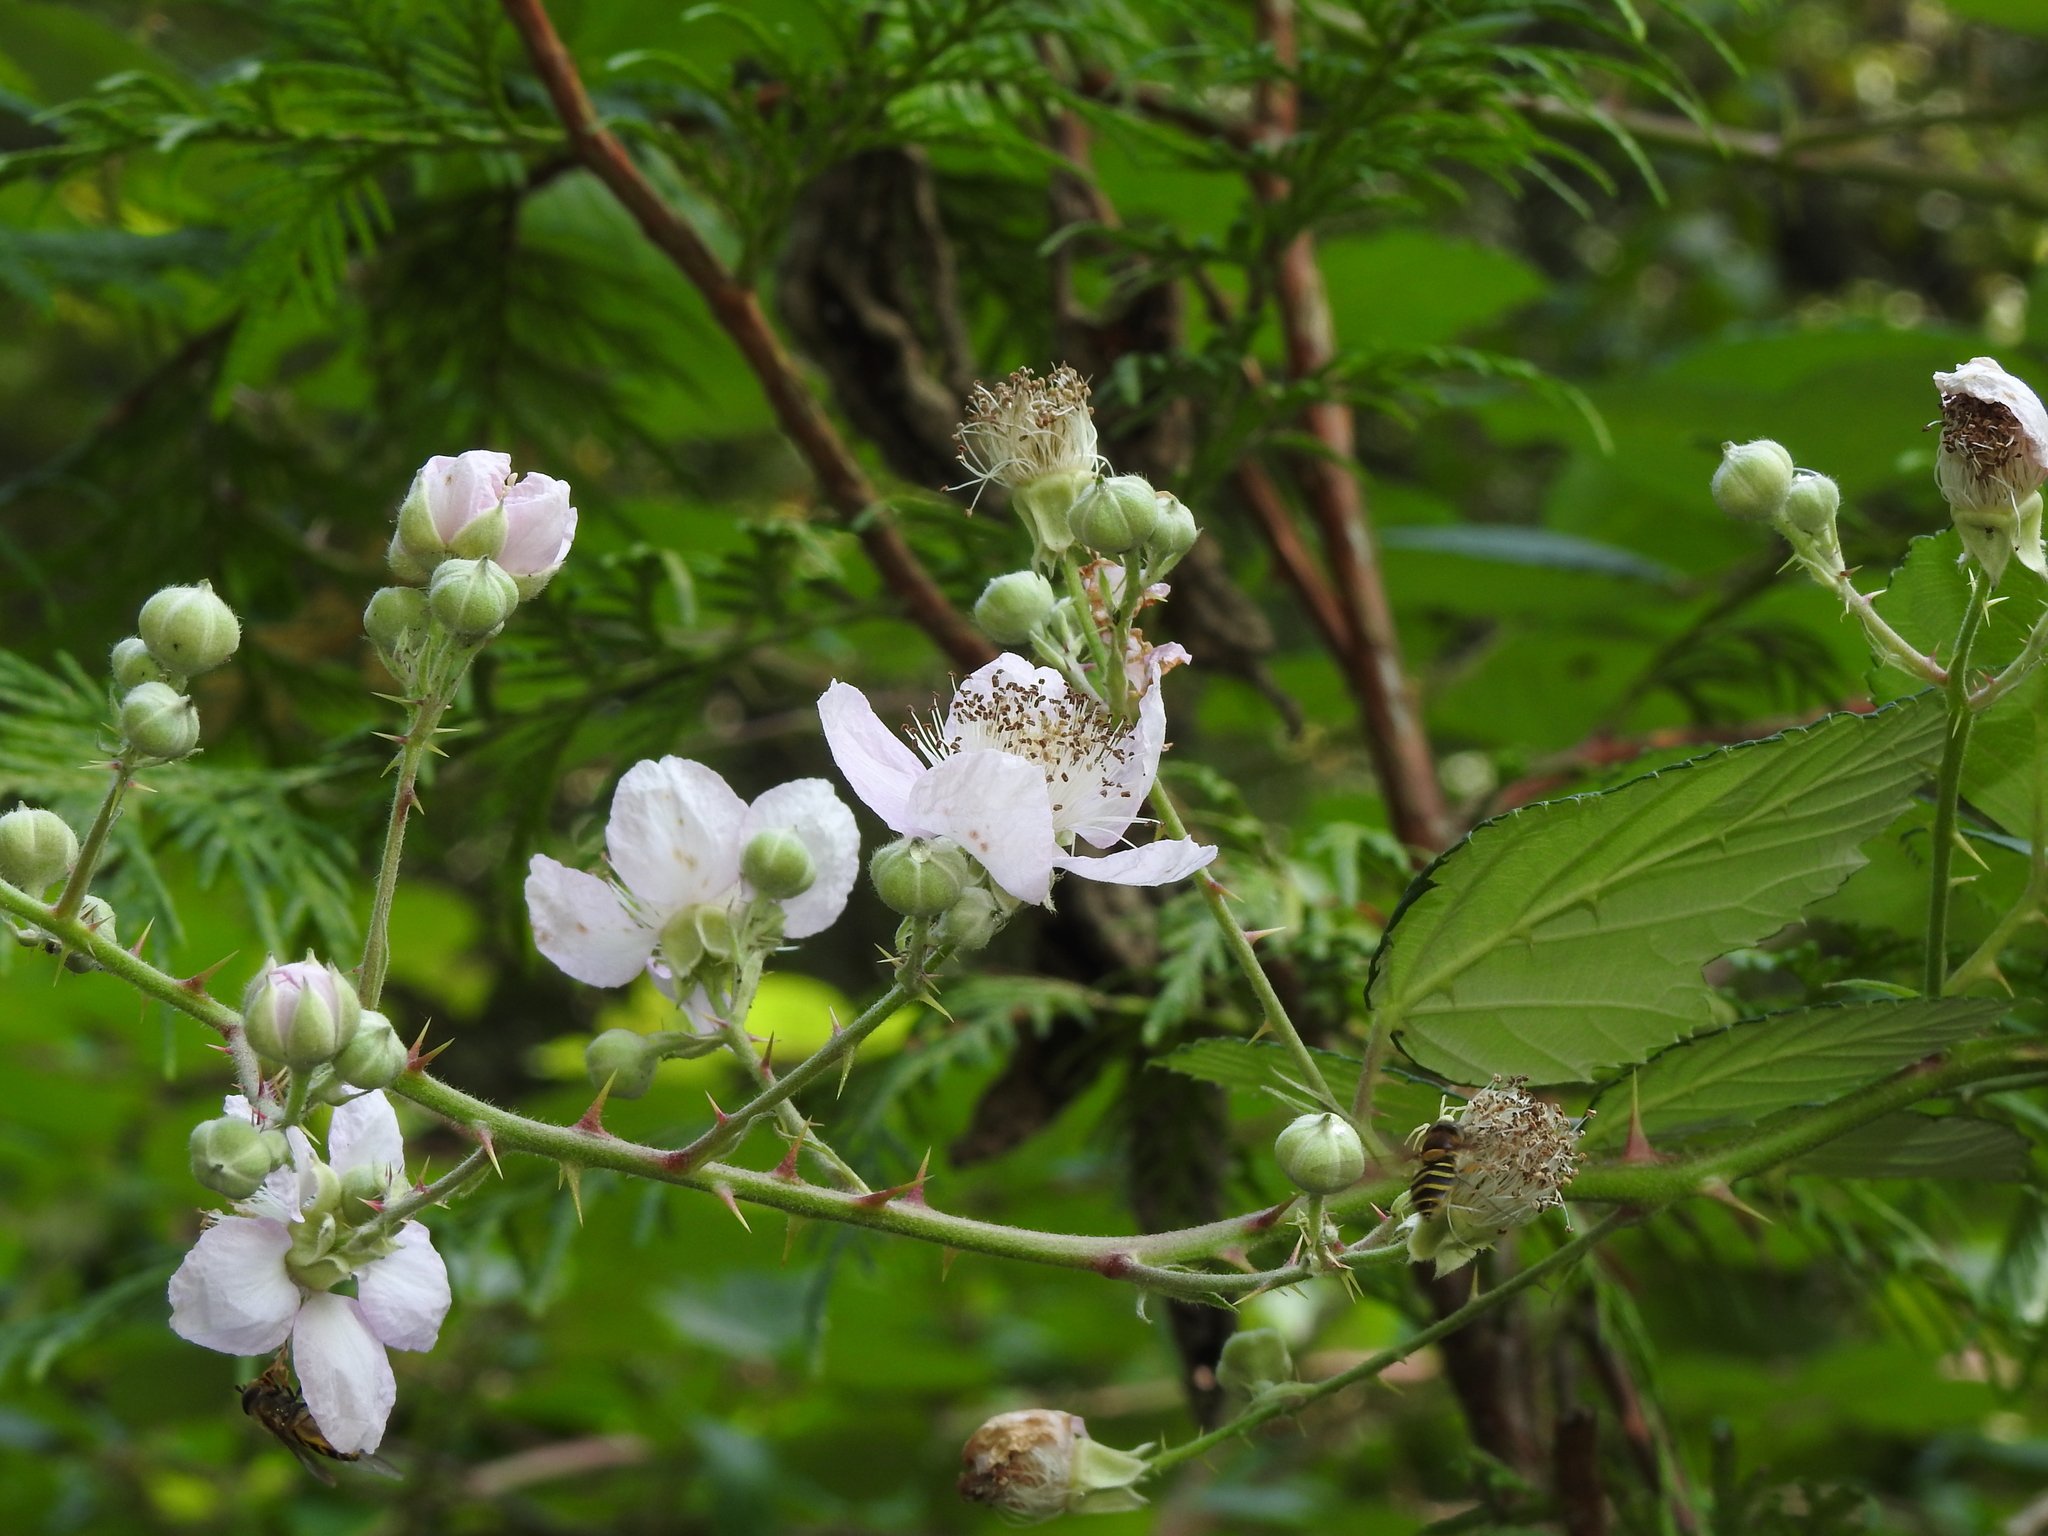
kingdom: Plantae
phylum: Tracheophyta
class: Magnoliopsida
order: Rosales
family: Rosaceae
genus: Rubus
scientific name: Rubus bifrons
